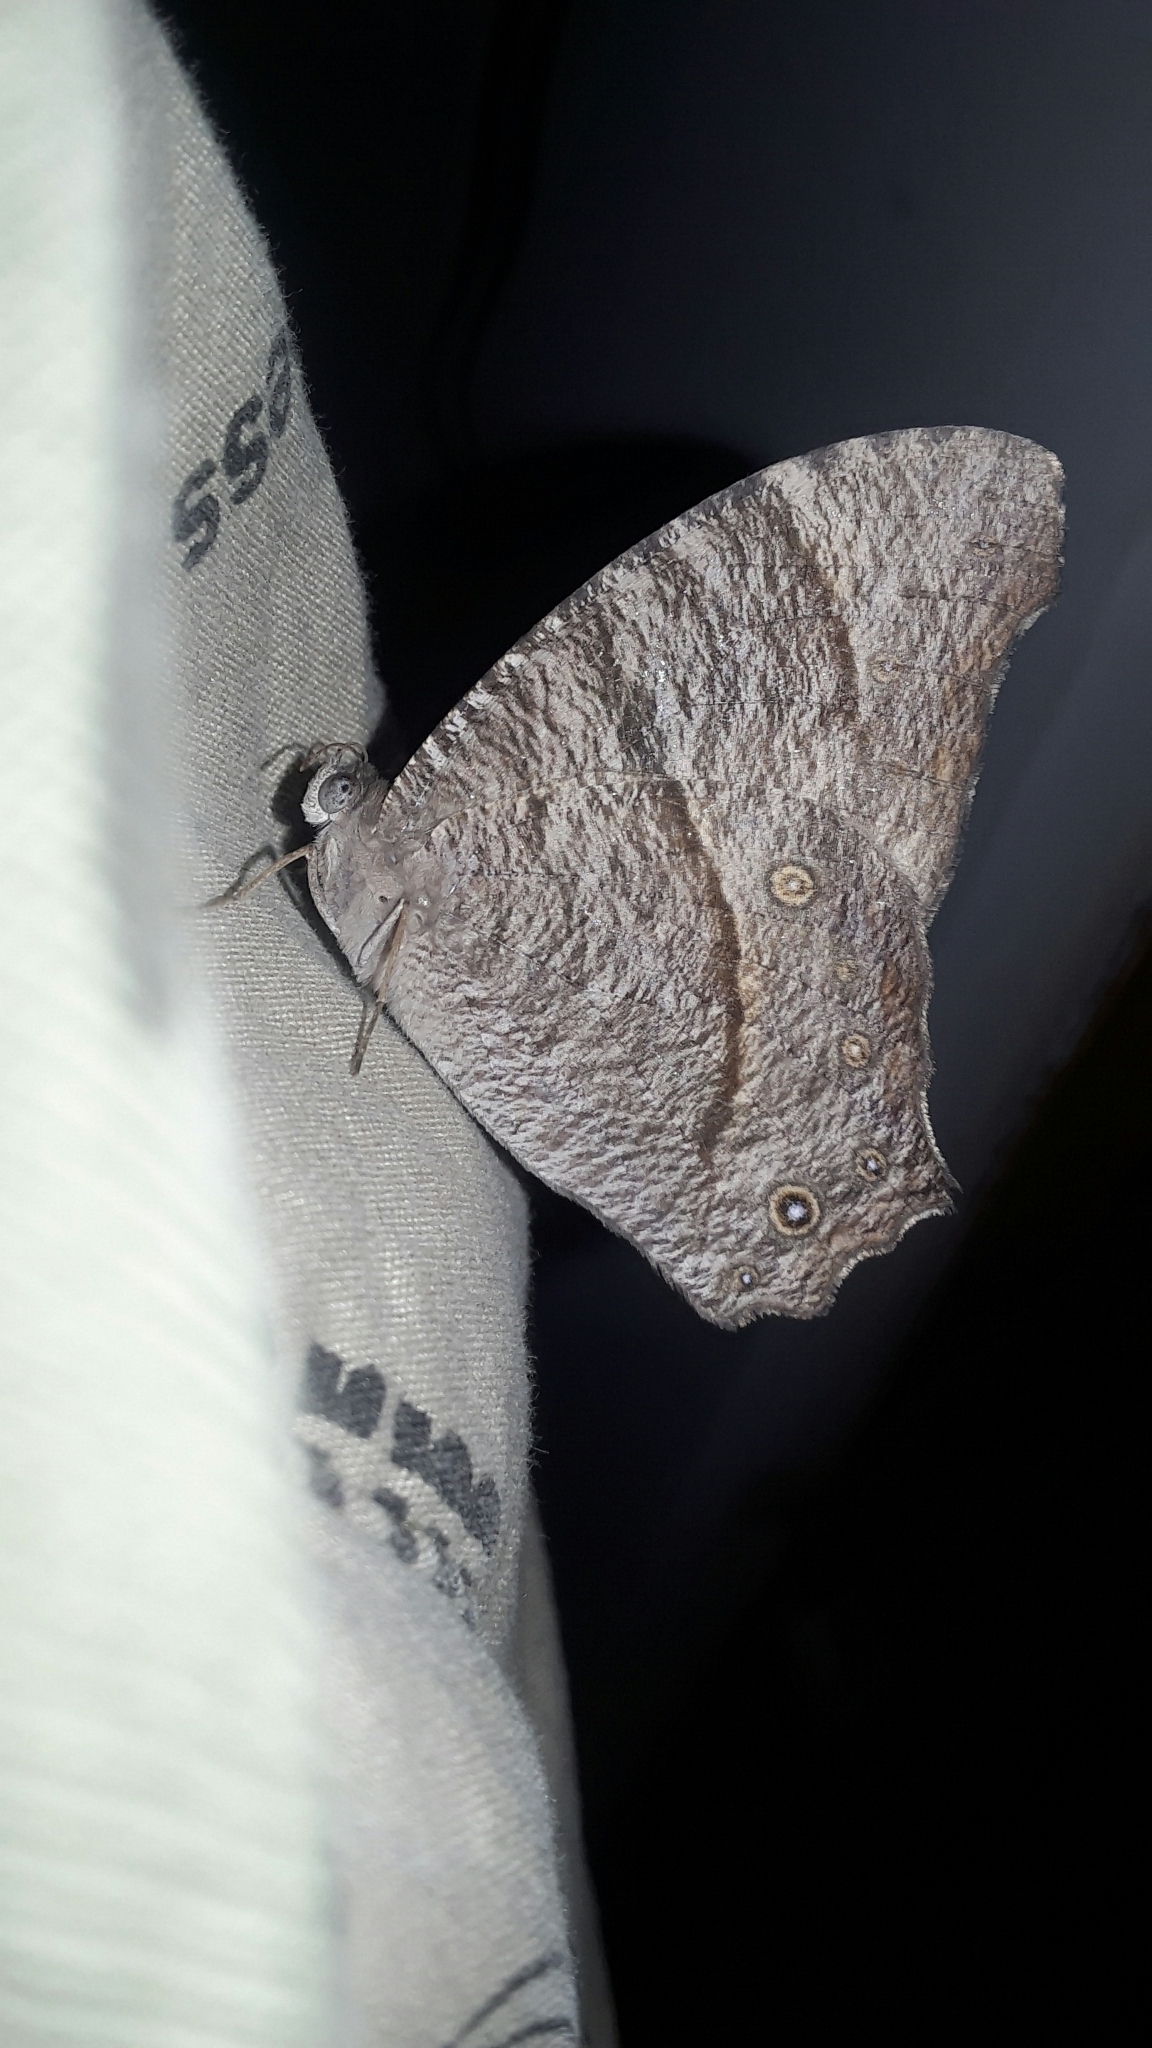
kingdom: Animalia
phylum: Arthropoda
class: Insecta
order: Lepidoptera
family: Nymphalidae
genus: Melanitis
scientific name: Melanitis leda
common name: Twilight brown
